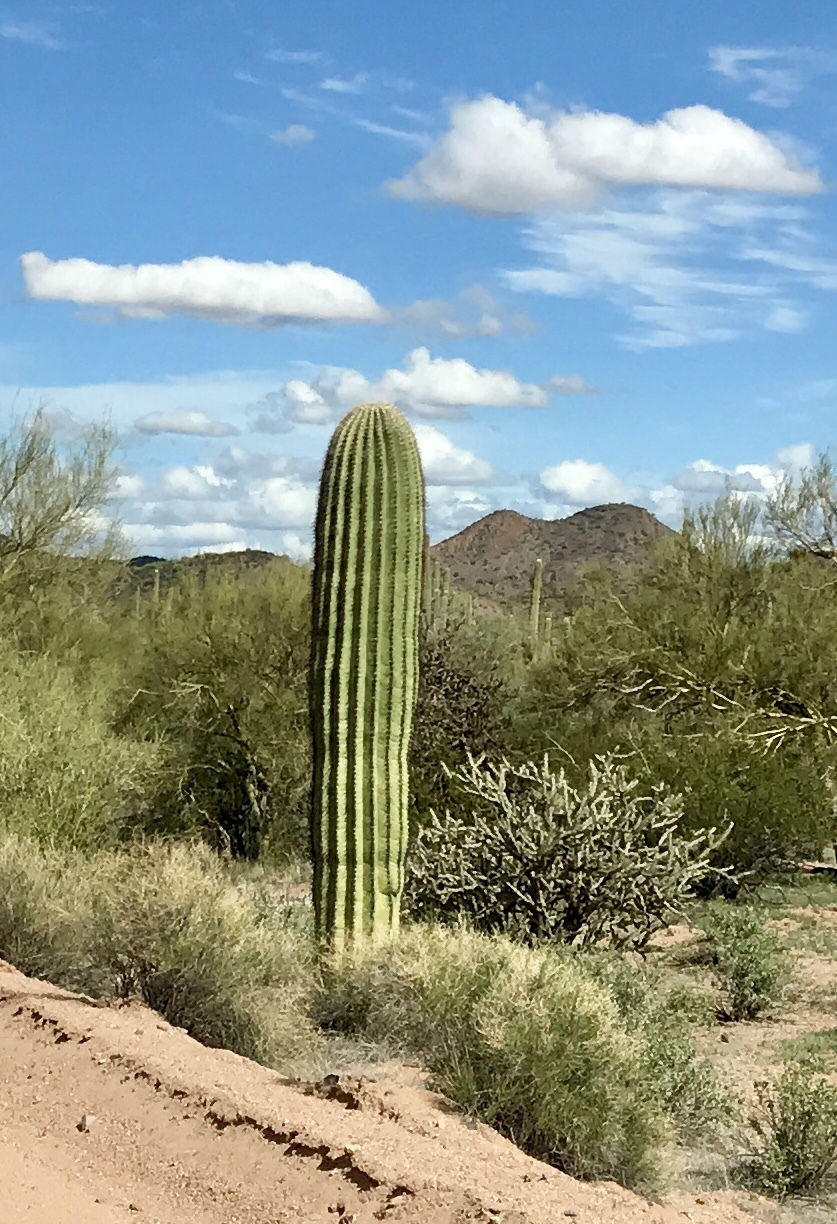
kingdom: Plantae
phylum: Tracheophyta
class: Magnoliopsida
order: Caryophyllales
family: Cactaceae
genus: Carnegiea
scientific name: Carnegiea gigantea
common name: Saguaro
